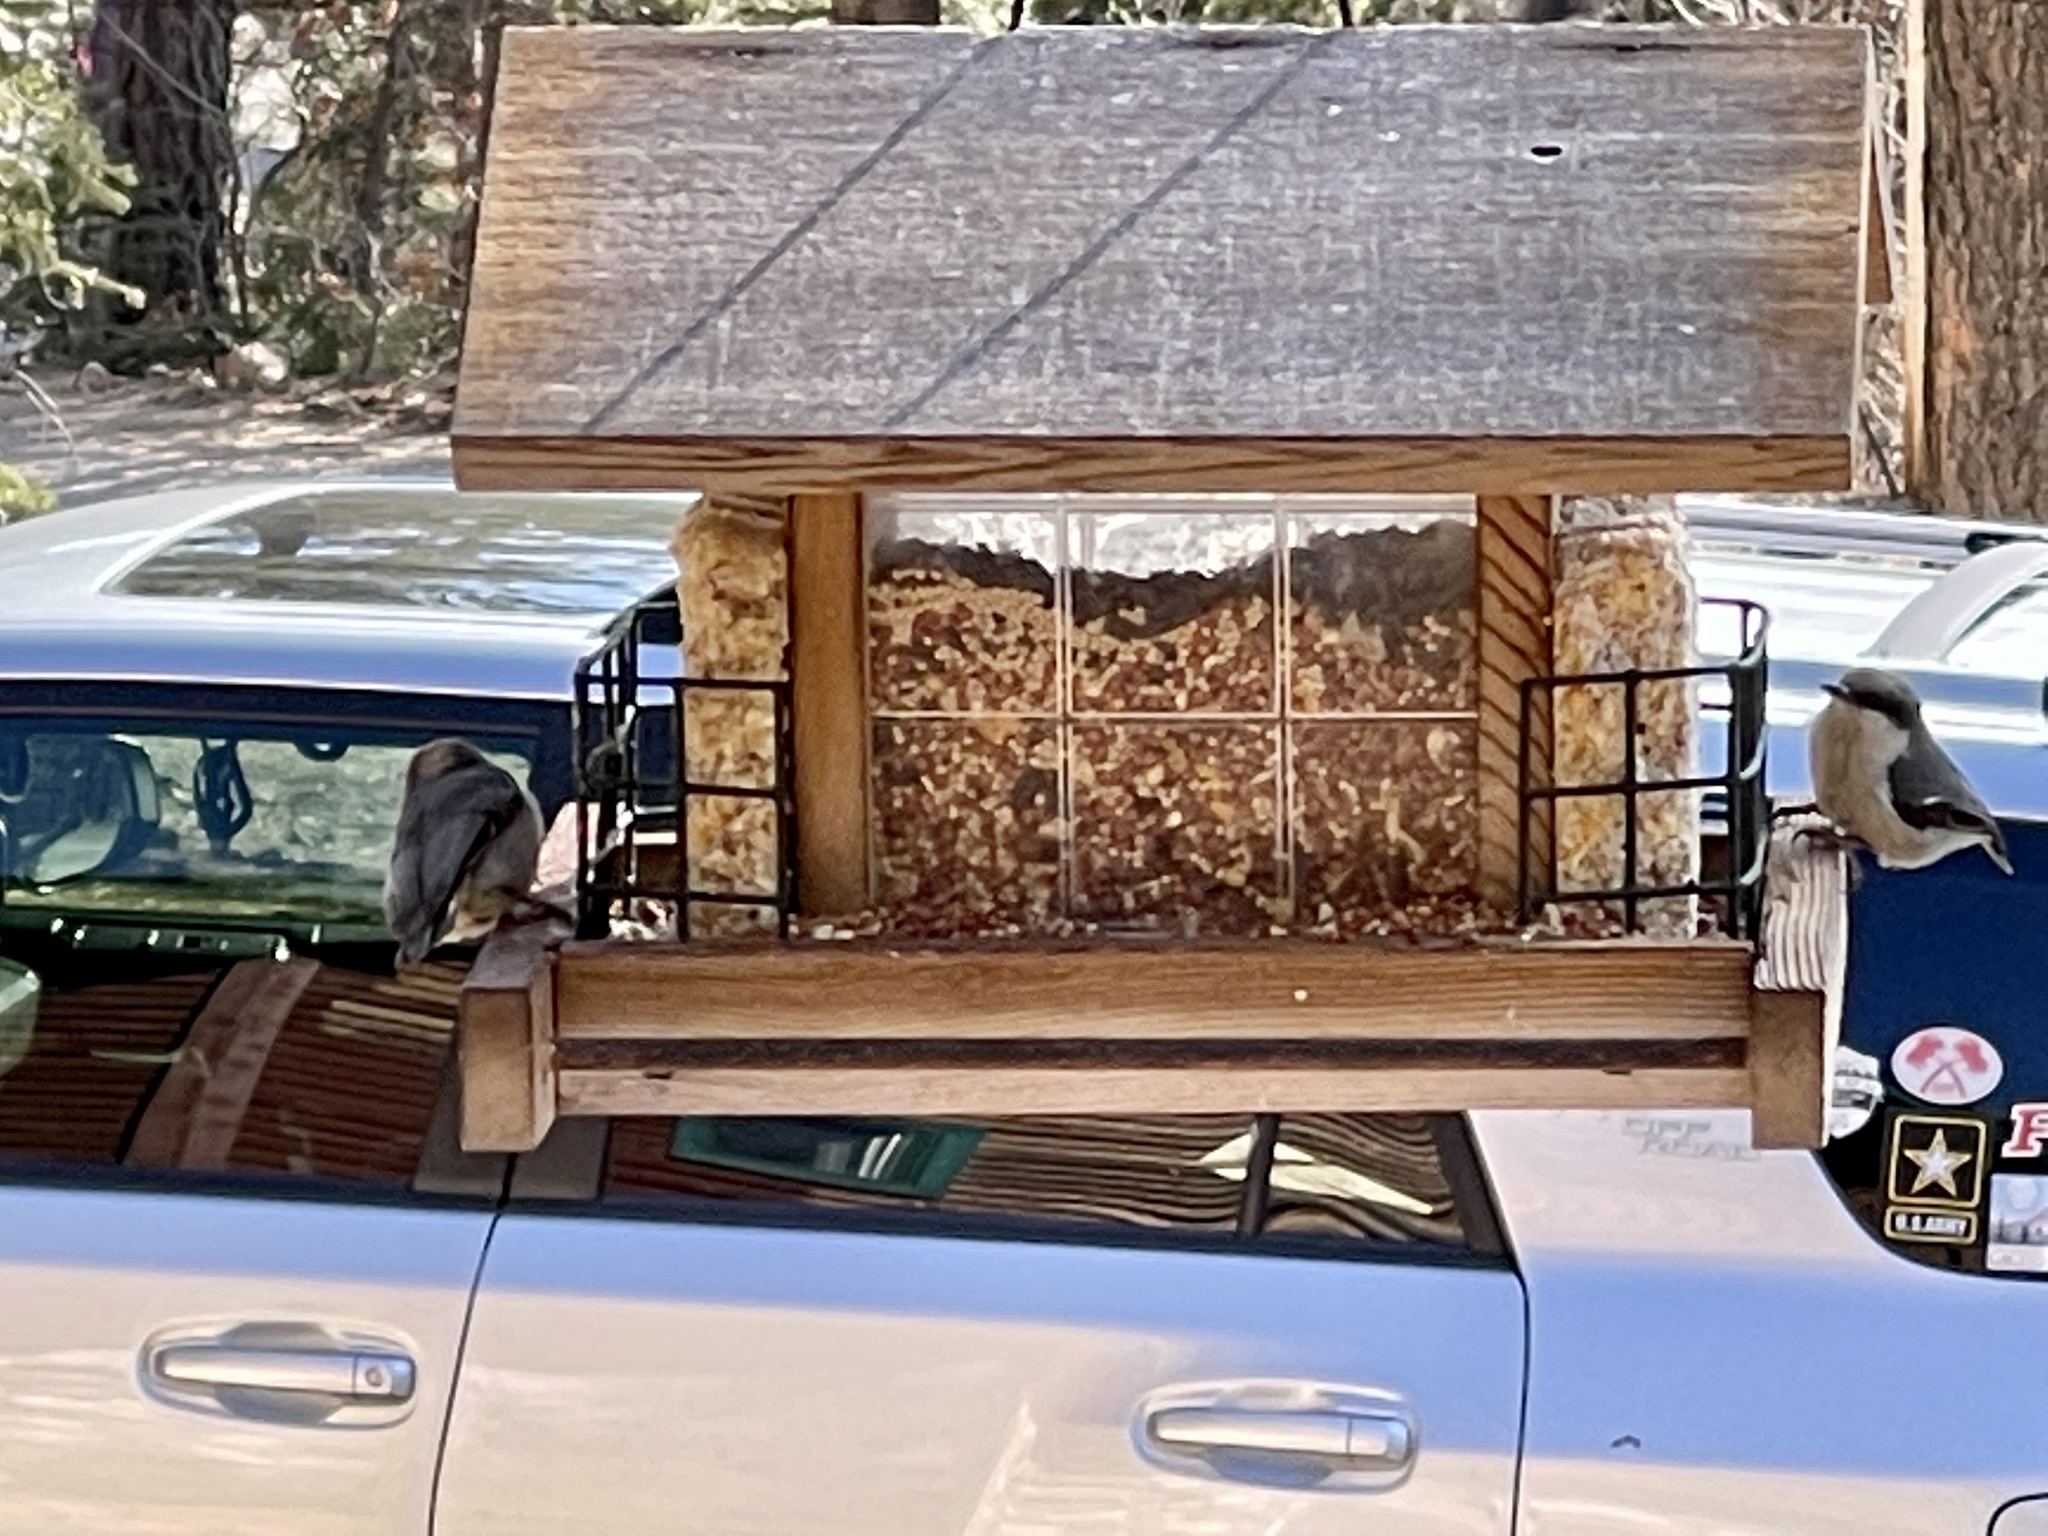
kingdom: Animalia
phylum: Chordata
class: Aves
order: Passeriformes
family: Sittidae
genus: Sitta
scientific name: Sitta pygmaea
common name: Pygmy nuthatch
